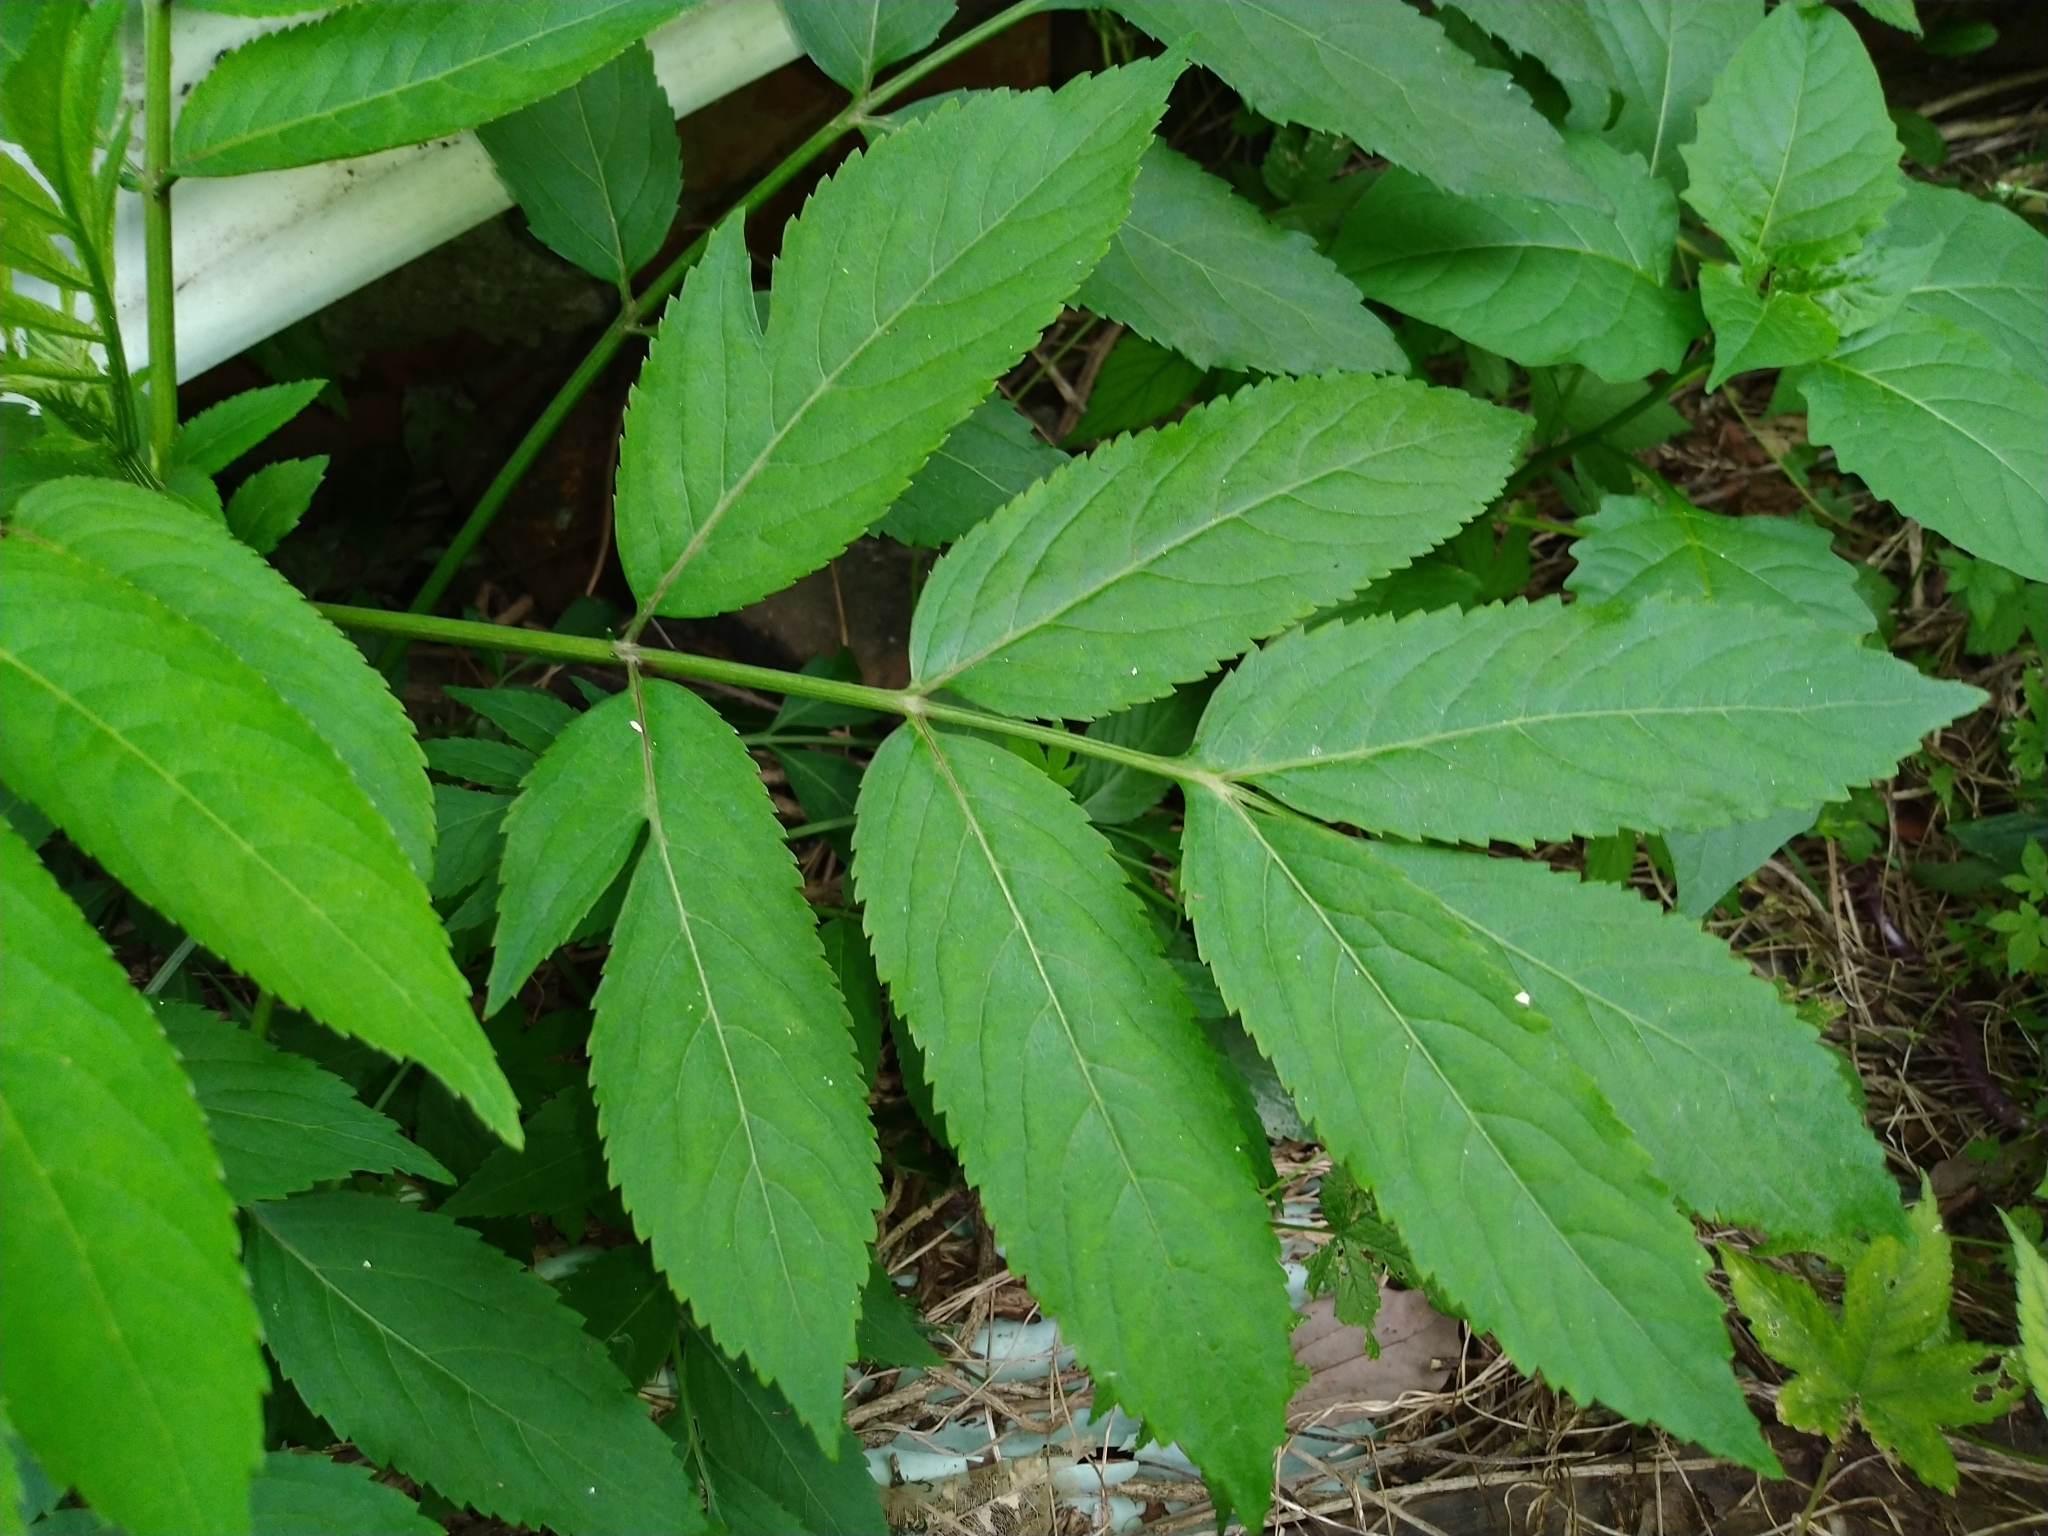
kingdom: Plantae
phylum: Tracheophyta
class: Magnoliopsida
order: Dipsacales
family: Viburnaceae
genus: Sambucus
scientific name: Sambucus javanica
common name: Chinese elder
